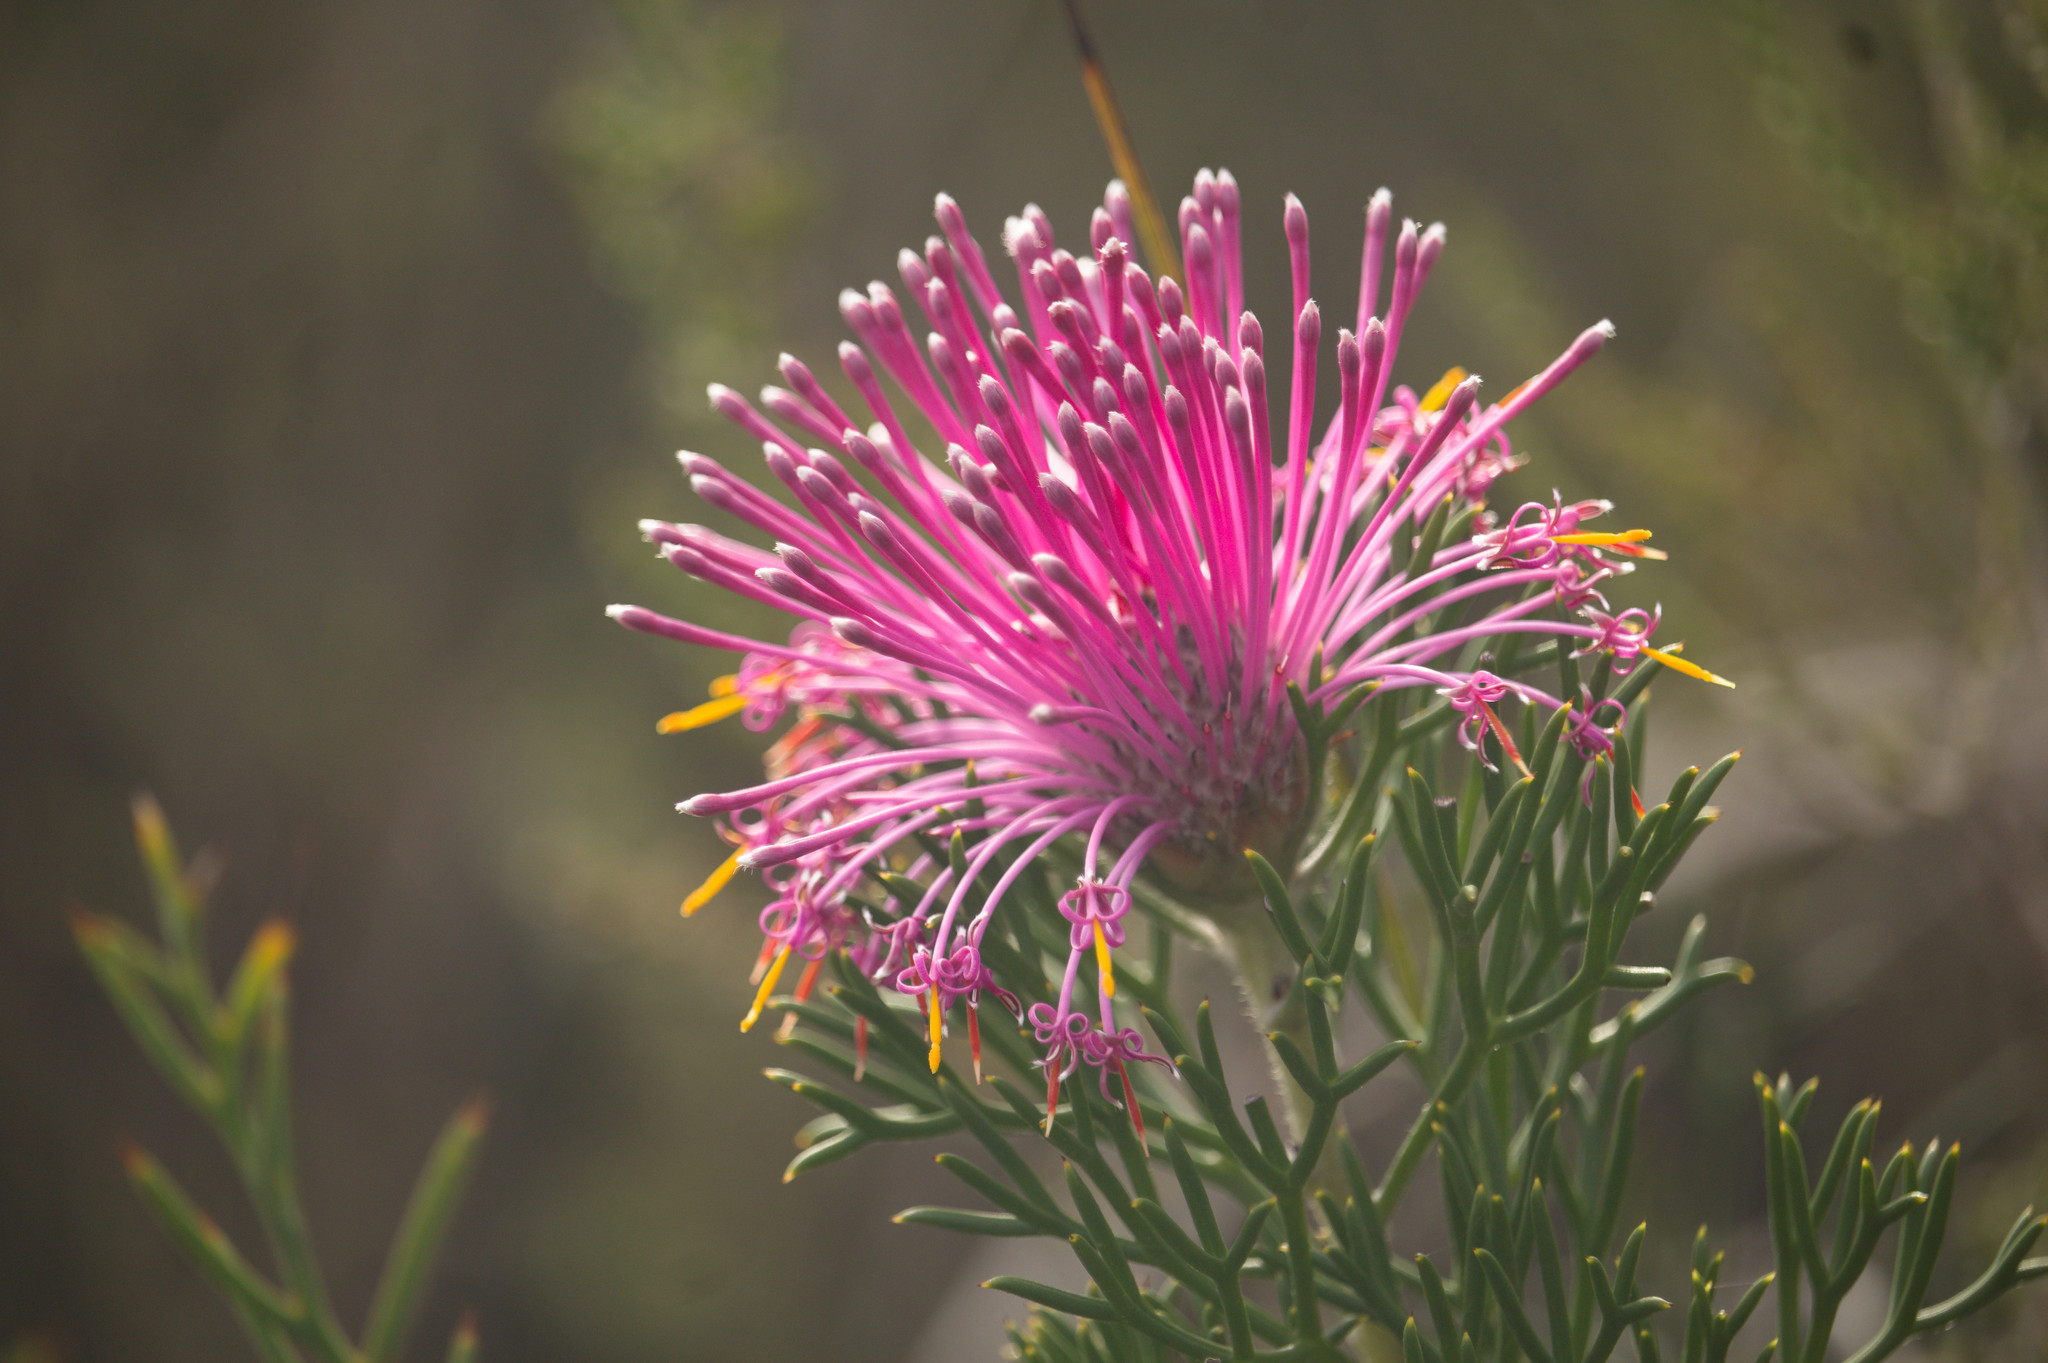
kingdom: Plantae
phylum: Tracheophyta
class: Magnoliopsida
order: Proteales
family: Proteaceae
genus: Isopogon
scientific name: Isopogon formosus
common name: Rose-coneflower
